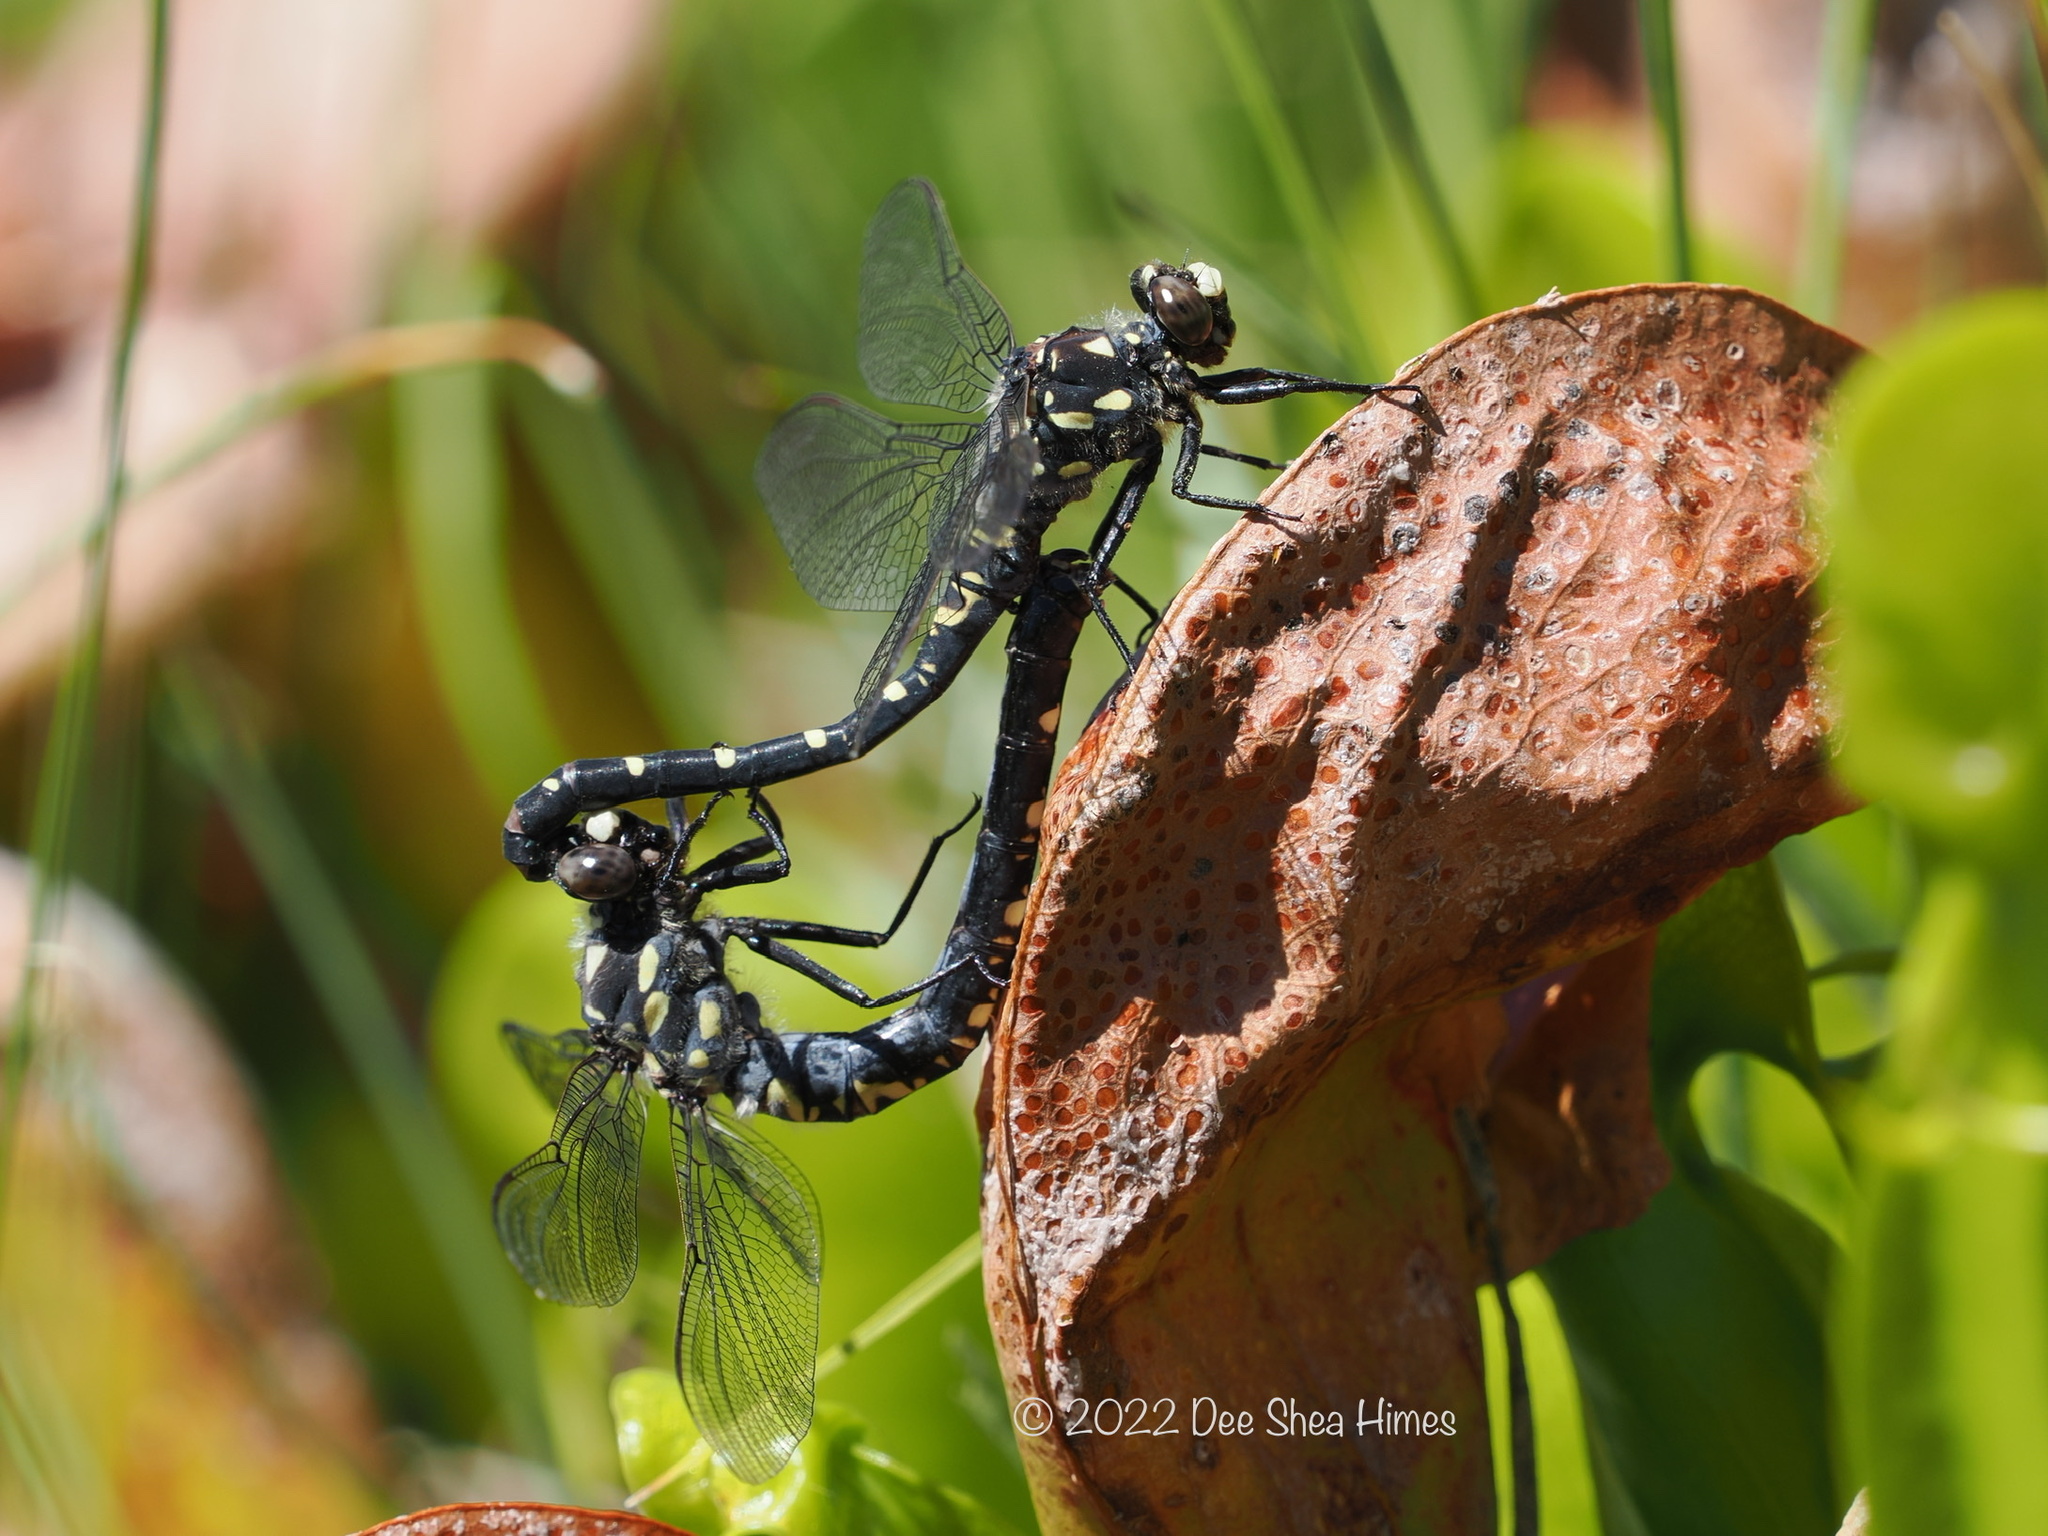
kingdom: Animalia
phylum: Arthropoda
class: Insecta
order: Odonata
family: Petaluridae
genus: Tanypteryx
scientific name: Tanypteryx hageni
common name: Black petaltail
